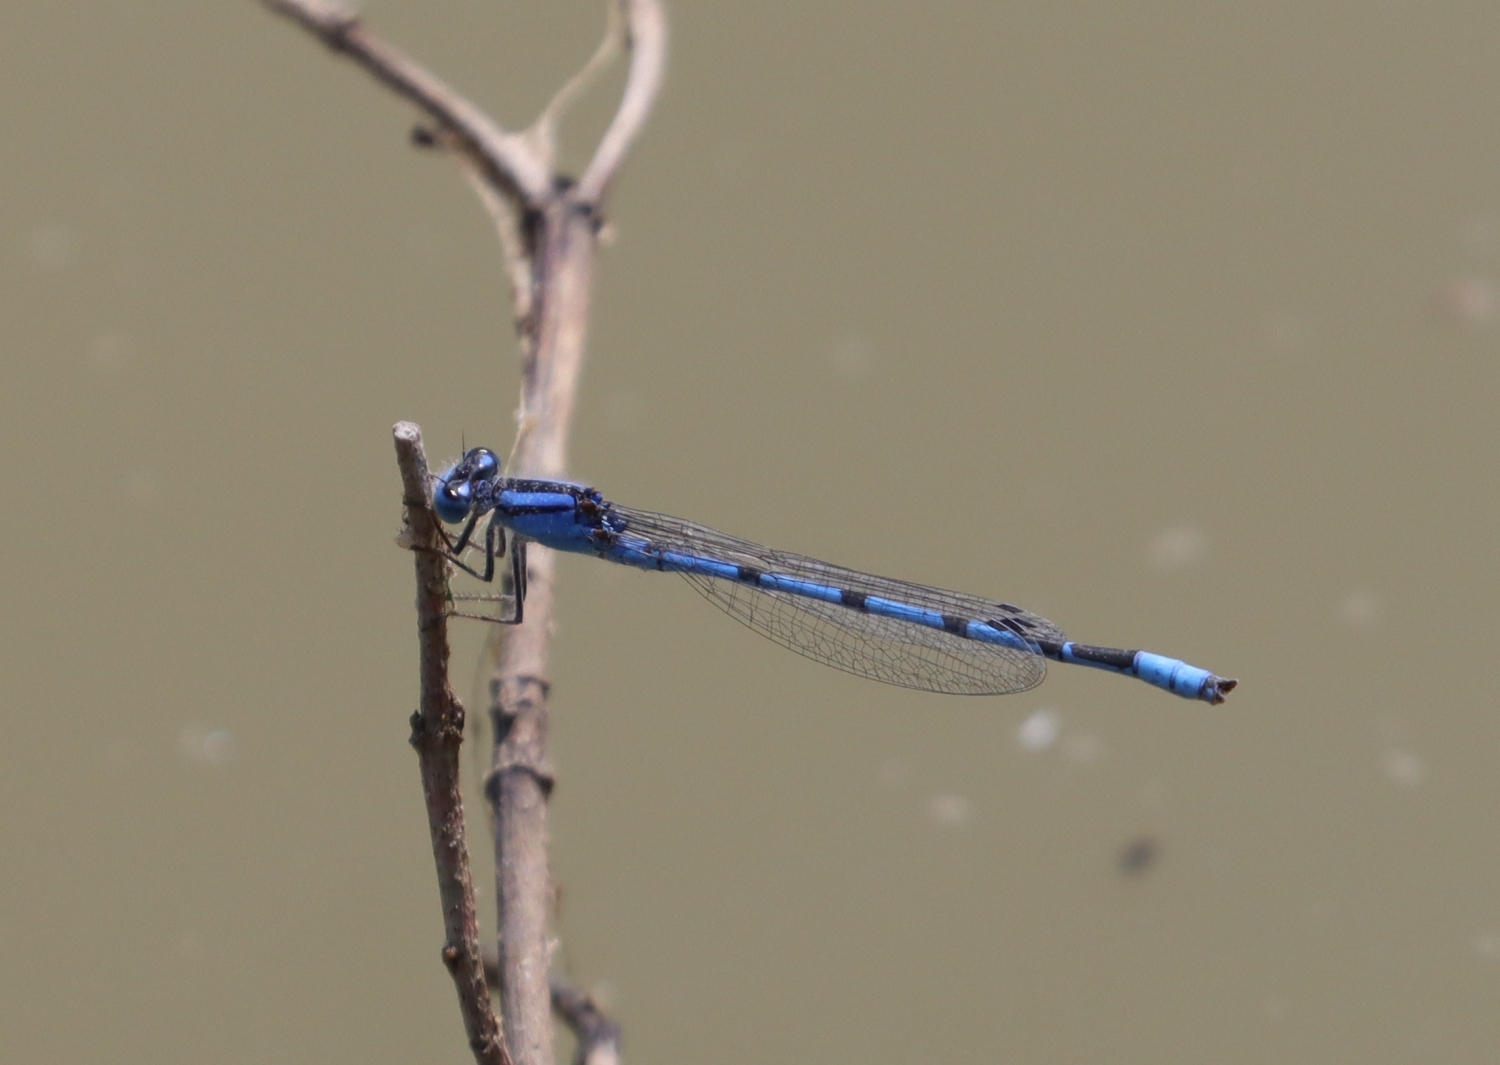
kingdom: Animalia
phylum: Arthropoda
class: Insecta
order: Odonata
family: Coenagrionidae
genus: Enallagma
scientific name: Enallagma civile
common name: Damselfly
